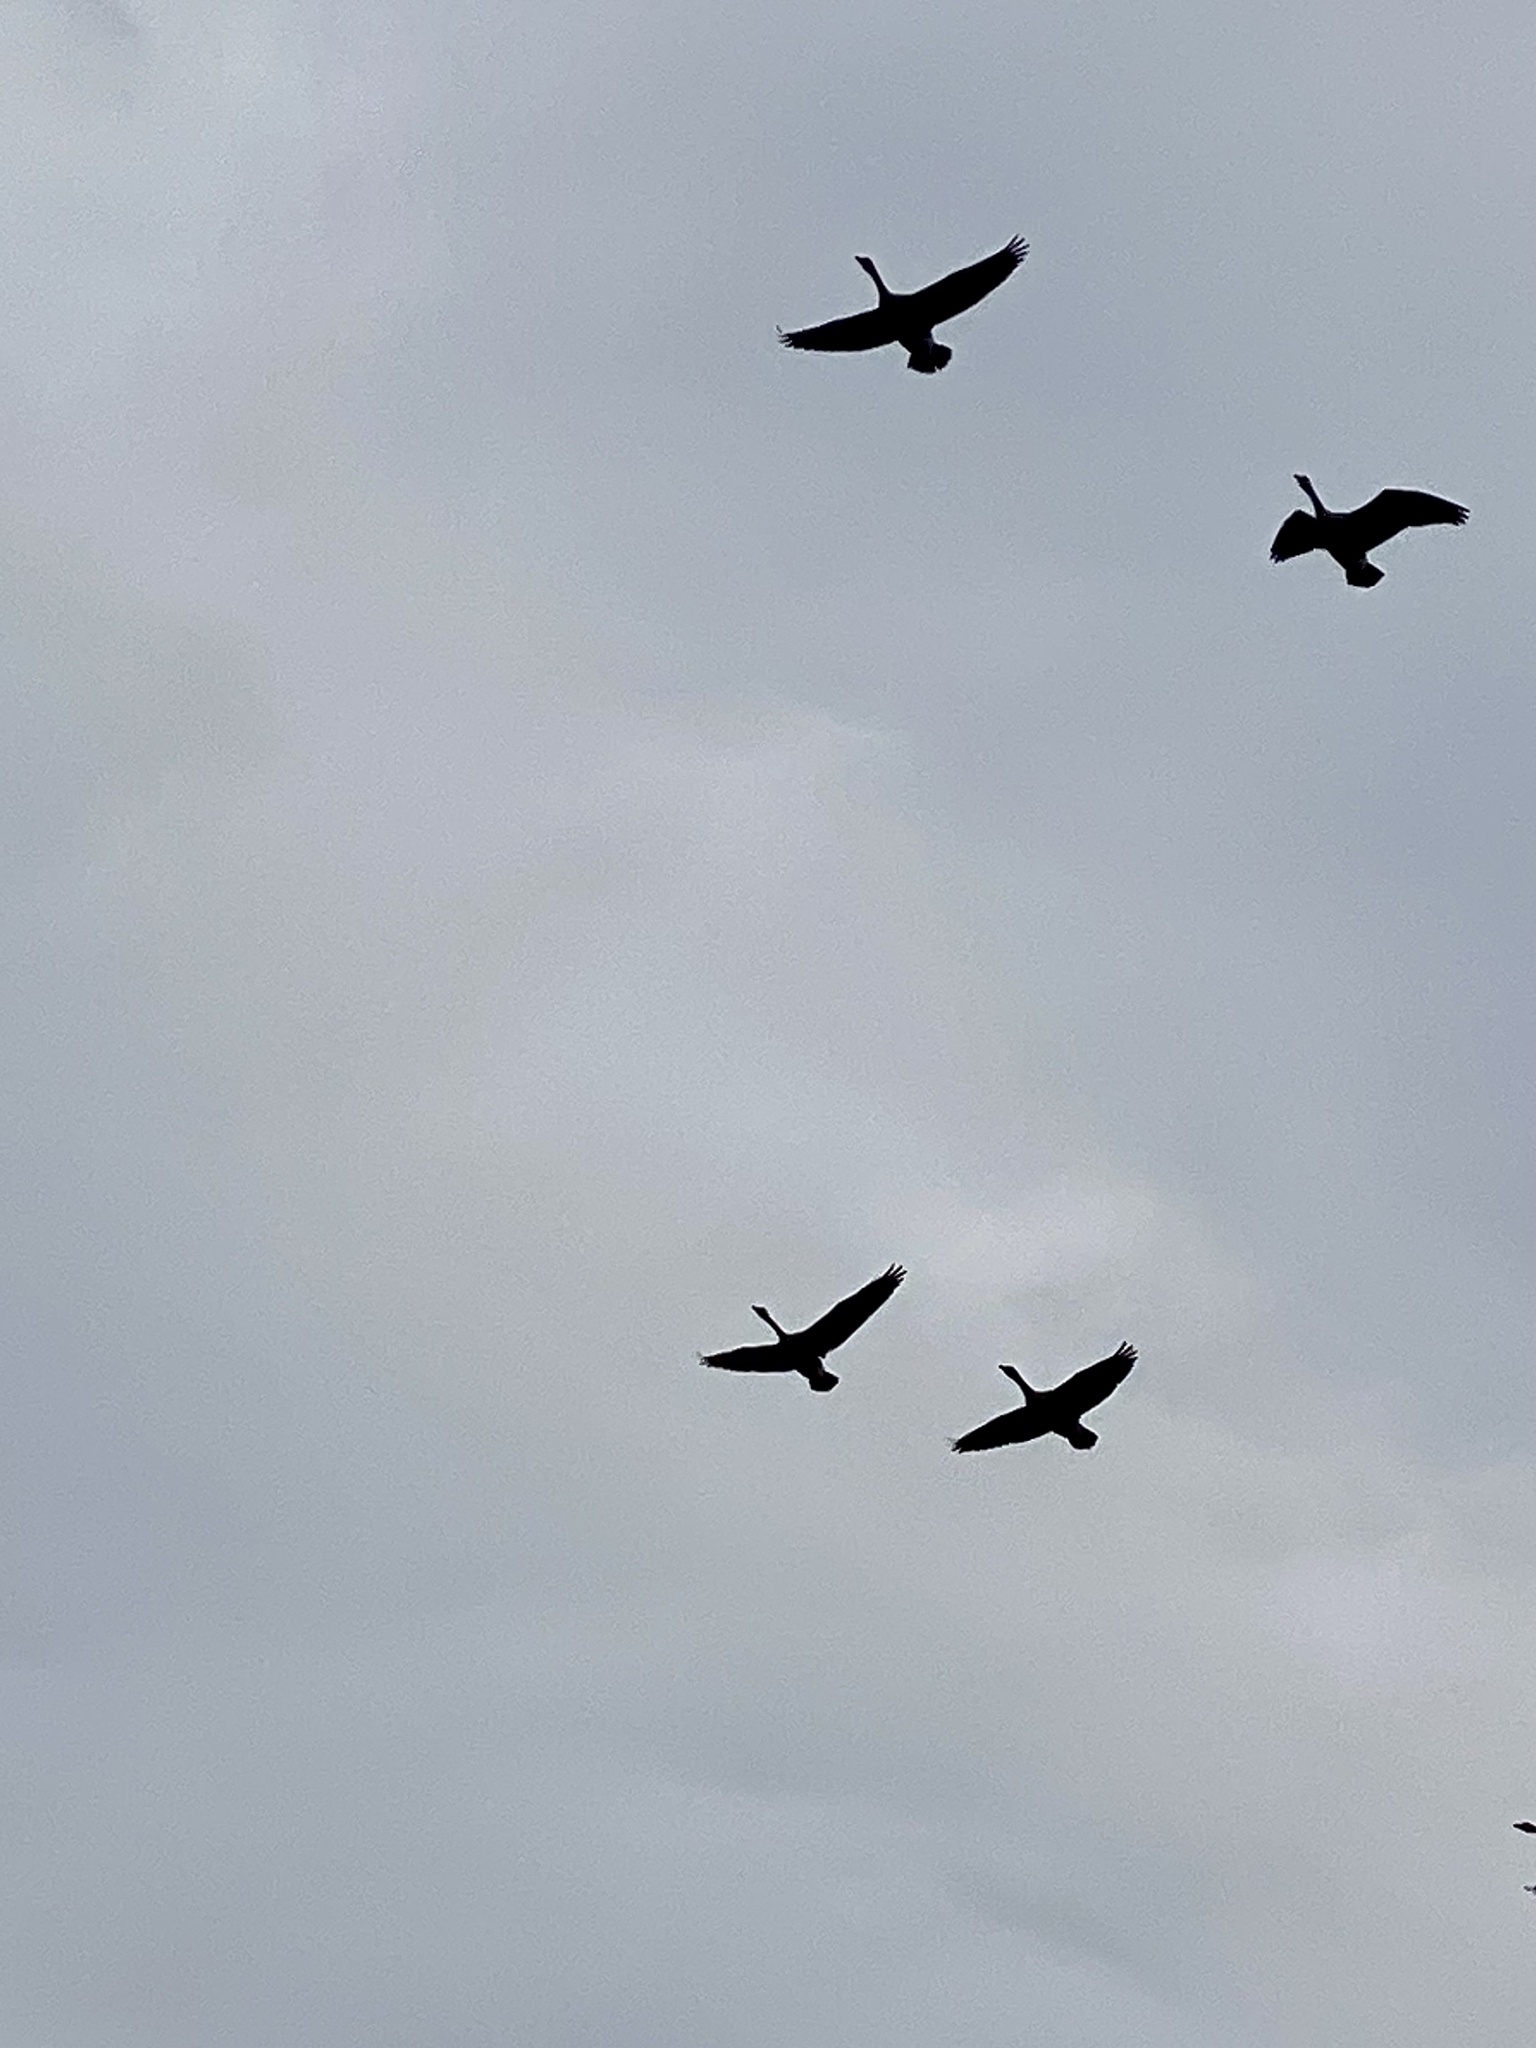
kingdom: Animalia
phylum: Chordata
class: Aves
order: Anseriformes
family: Anatidae
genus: Branta
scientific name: Branta canadensis
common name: Canada goose
